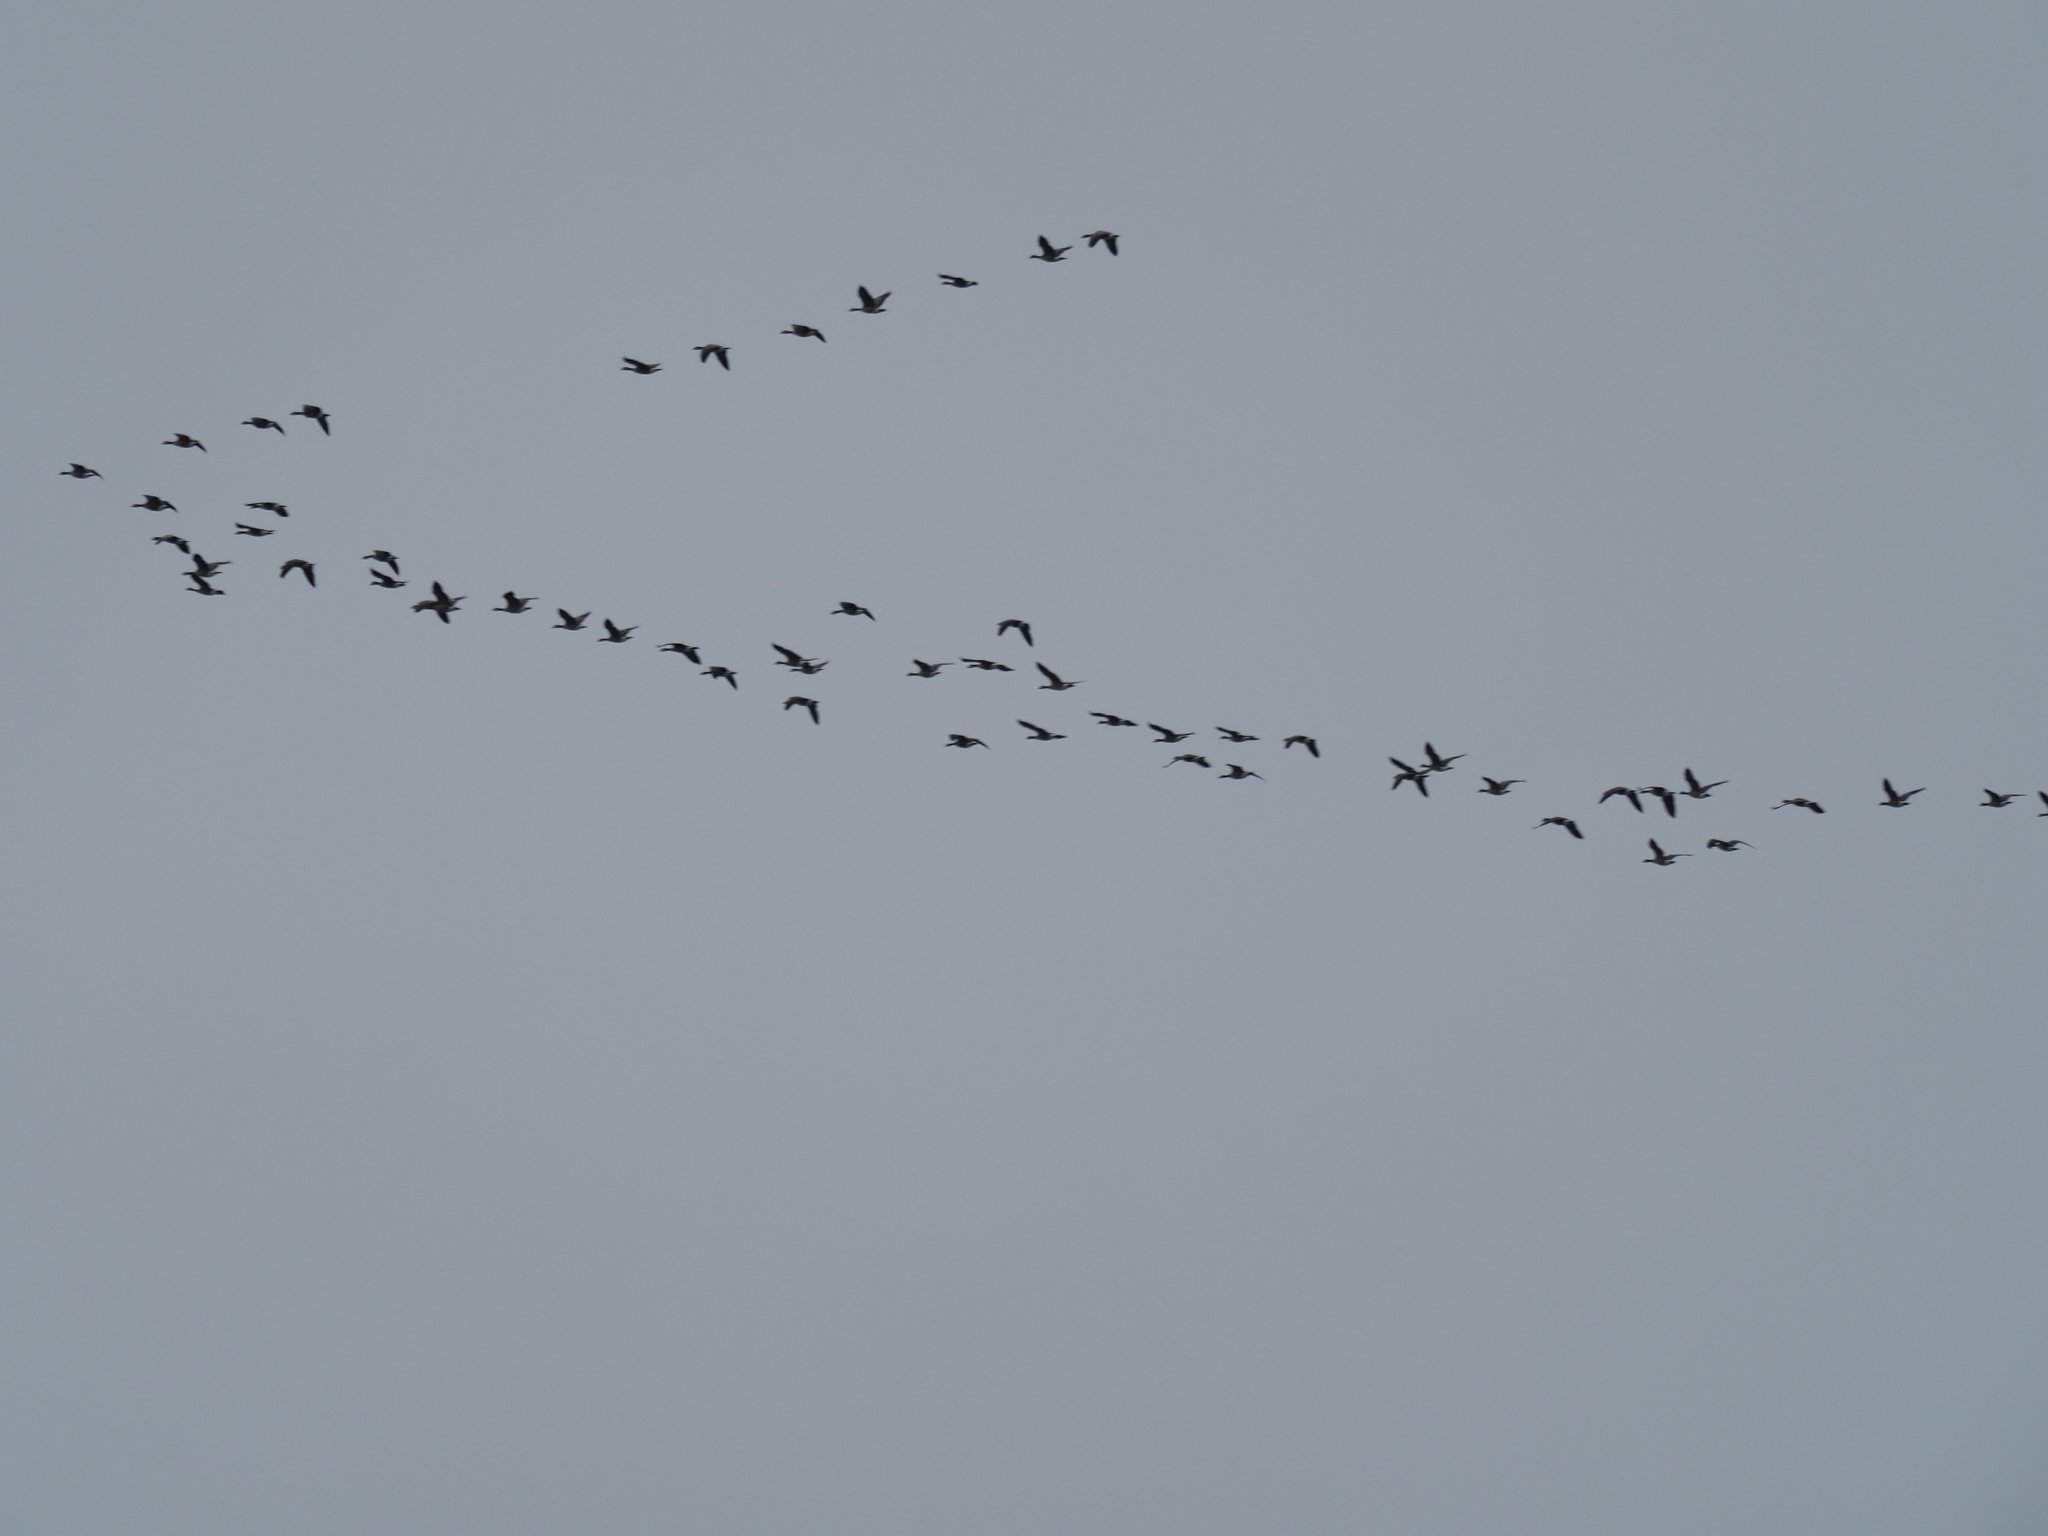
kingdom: Animalia
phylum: Chordata
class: Aves
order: Anseriformes
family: Anatidae
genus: Branta
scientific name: Branta hutchinsii
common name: Cackling goose
